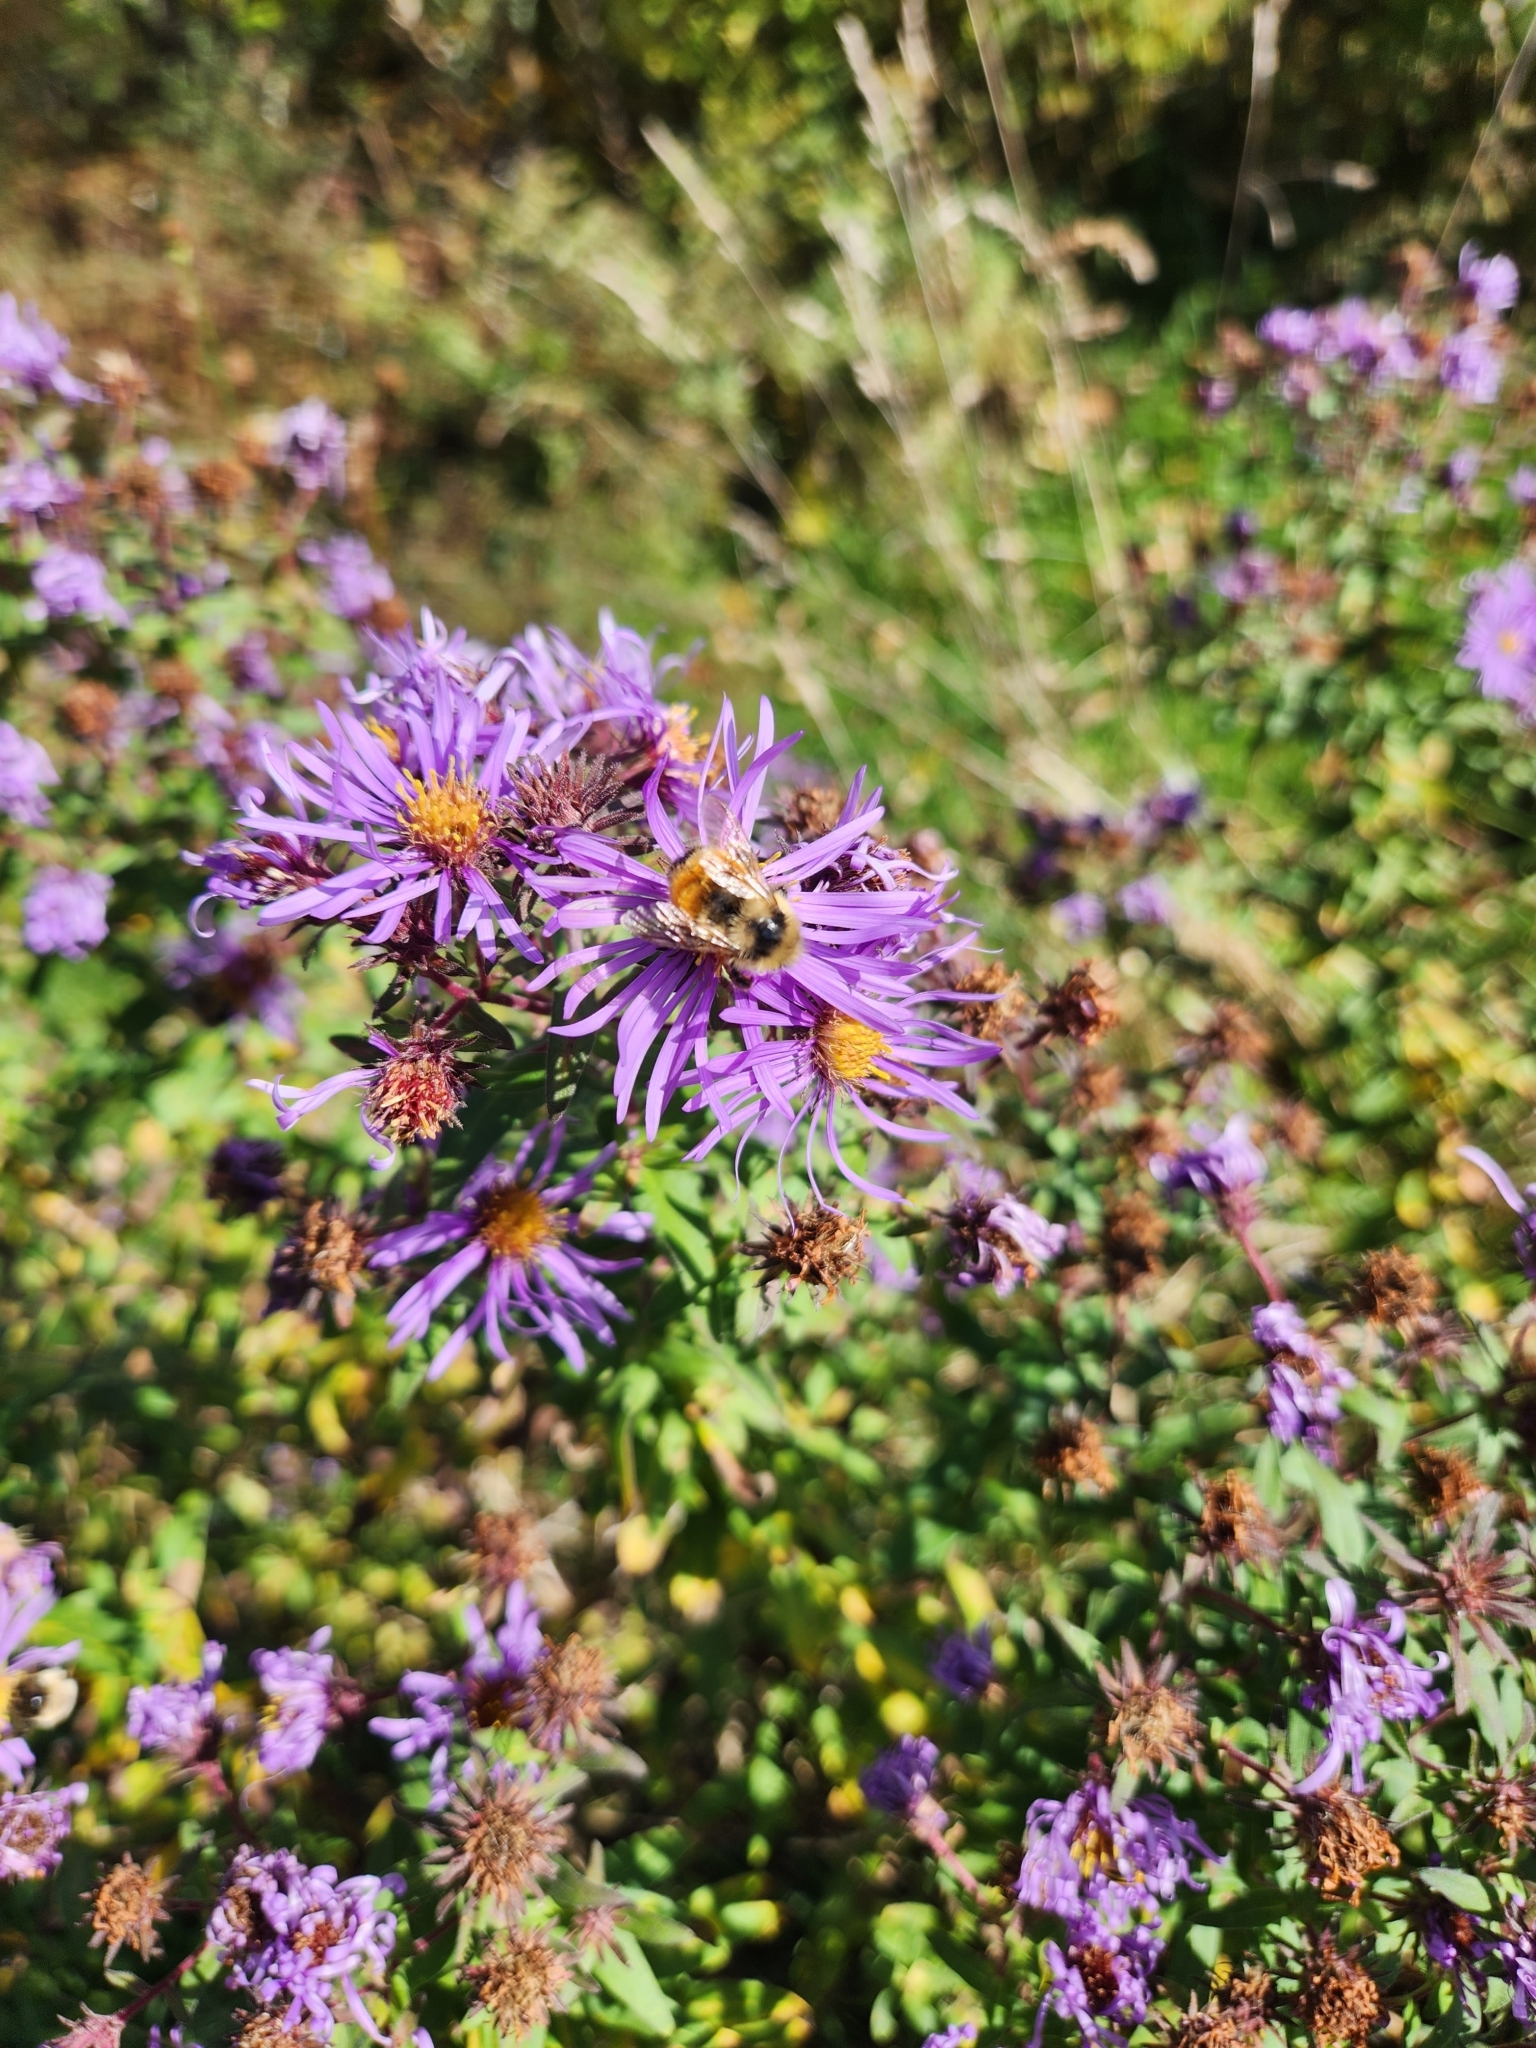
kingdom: Animalia
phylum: Arthropoda
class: Insecta
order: Hymenoptera
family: Apidae
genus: Bombus
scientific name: Bombus ternarius
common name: Tri-colored bumble bee
